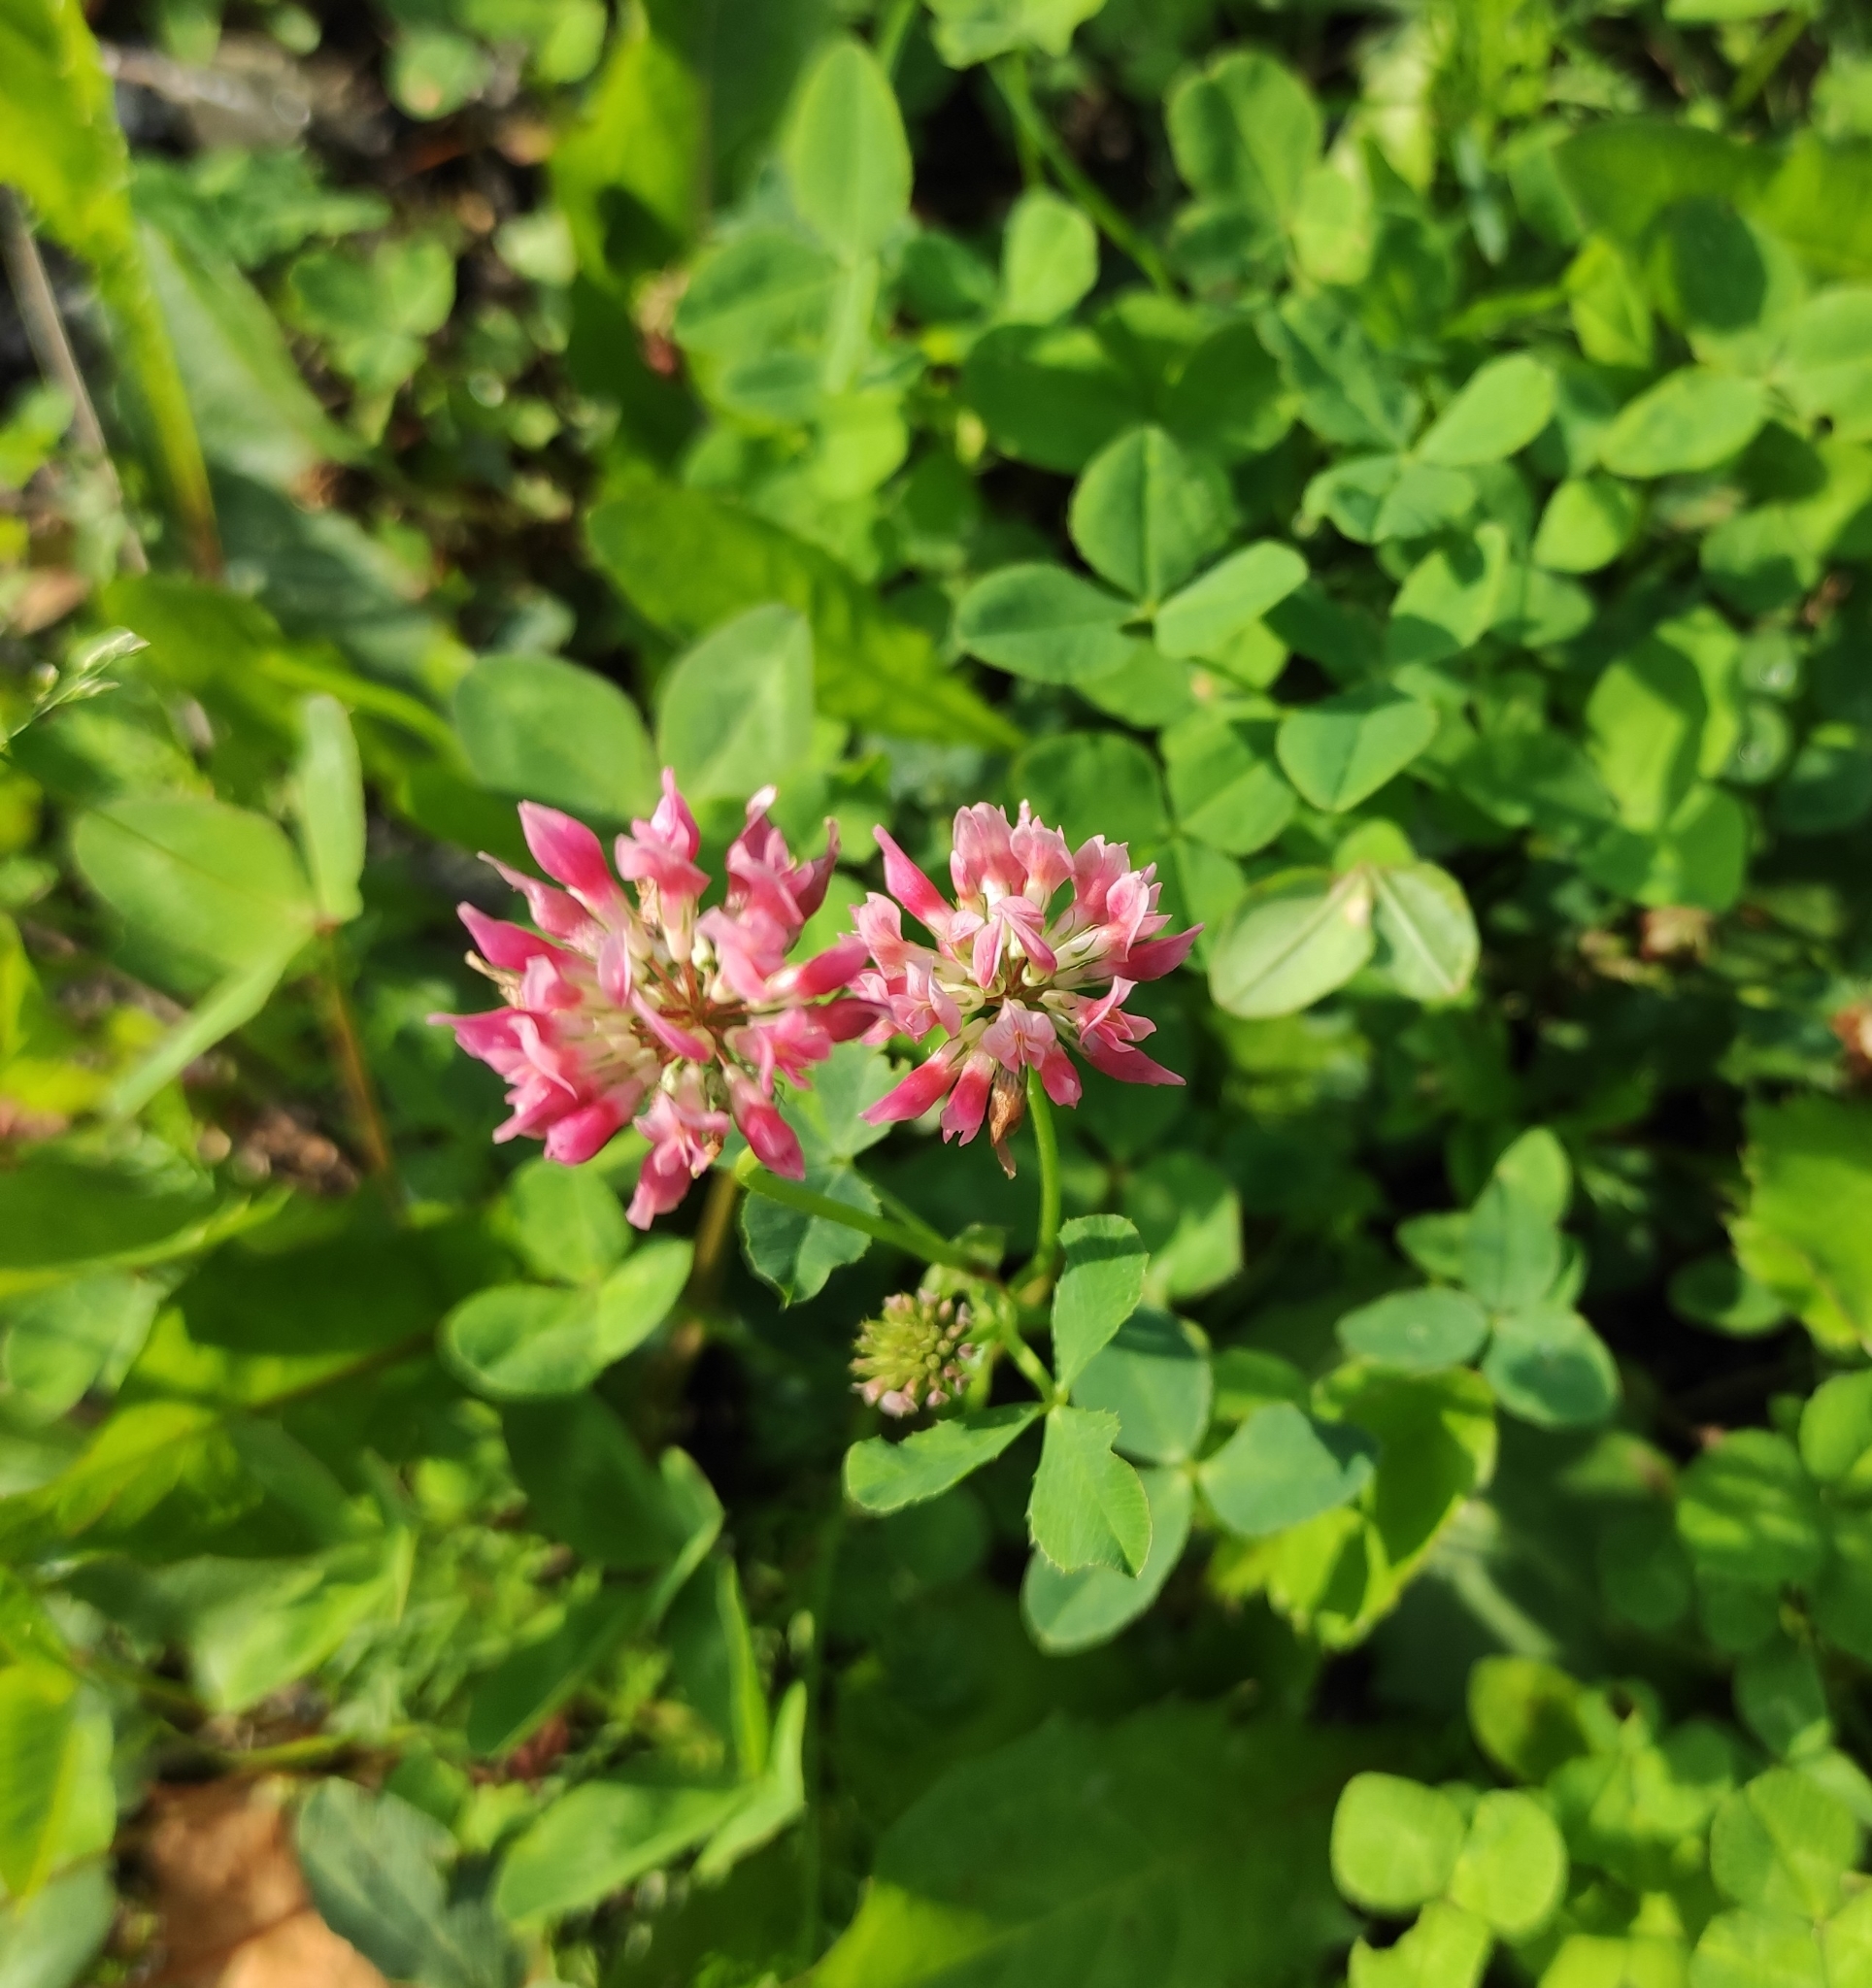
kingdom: Plantae
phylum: Tracheophyta
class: Magnoliopsida
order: Fabales
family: Fabaceae
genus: Trifolium
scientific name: Trifolium hybridum
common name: Alsike clover
